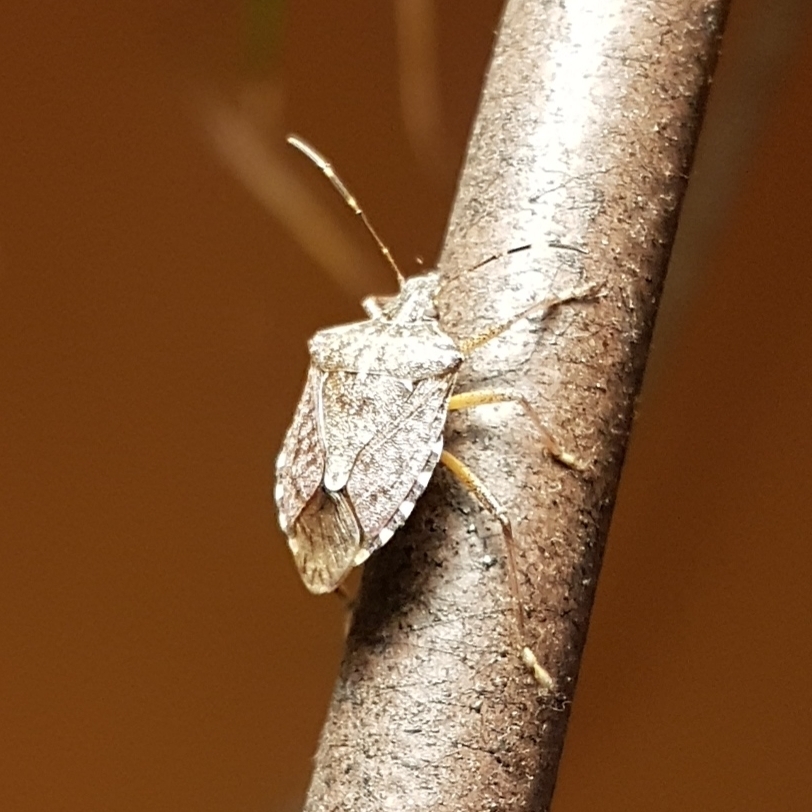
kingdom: Animalia
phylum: Arthropoda
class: Insecta
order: Hemiptera
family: Pentatomidae
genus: Halyomorpha
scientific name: Halyomorpha halys
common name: Brown marmorated stink bug
